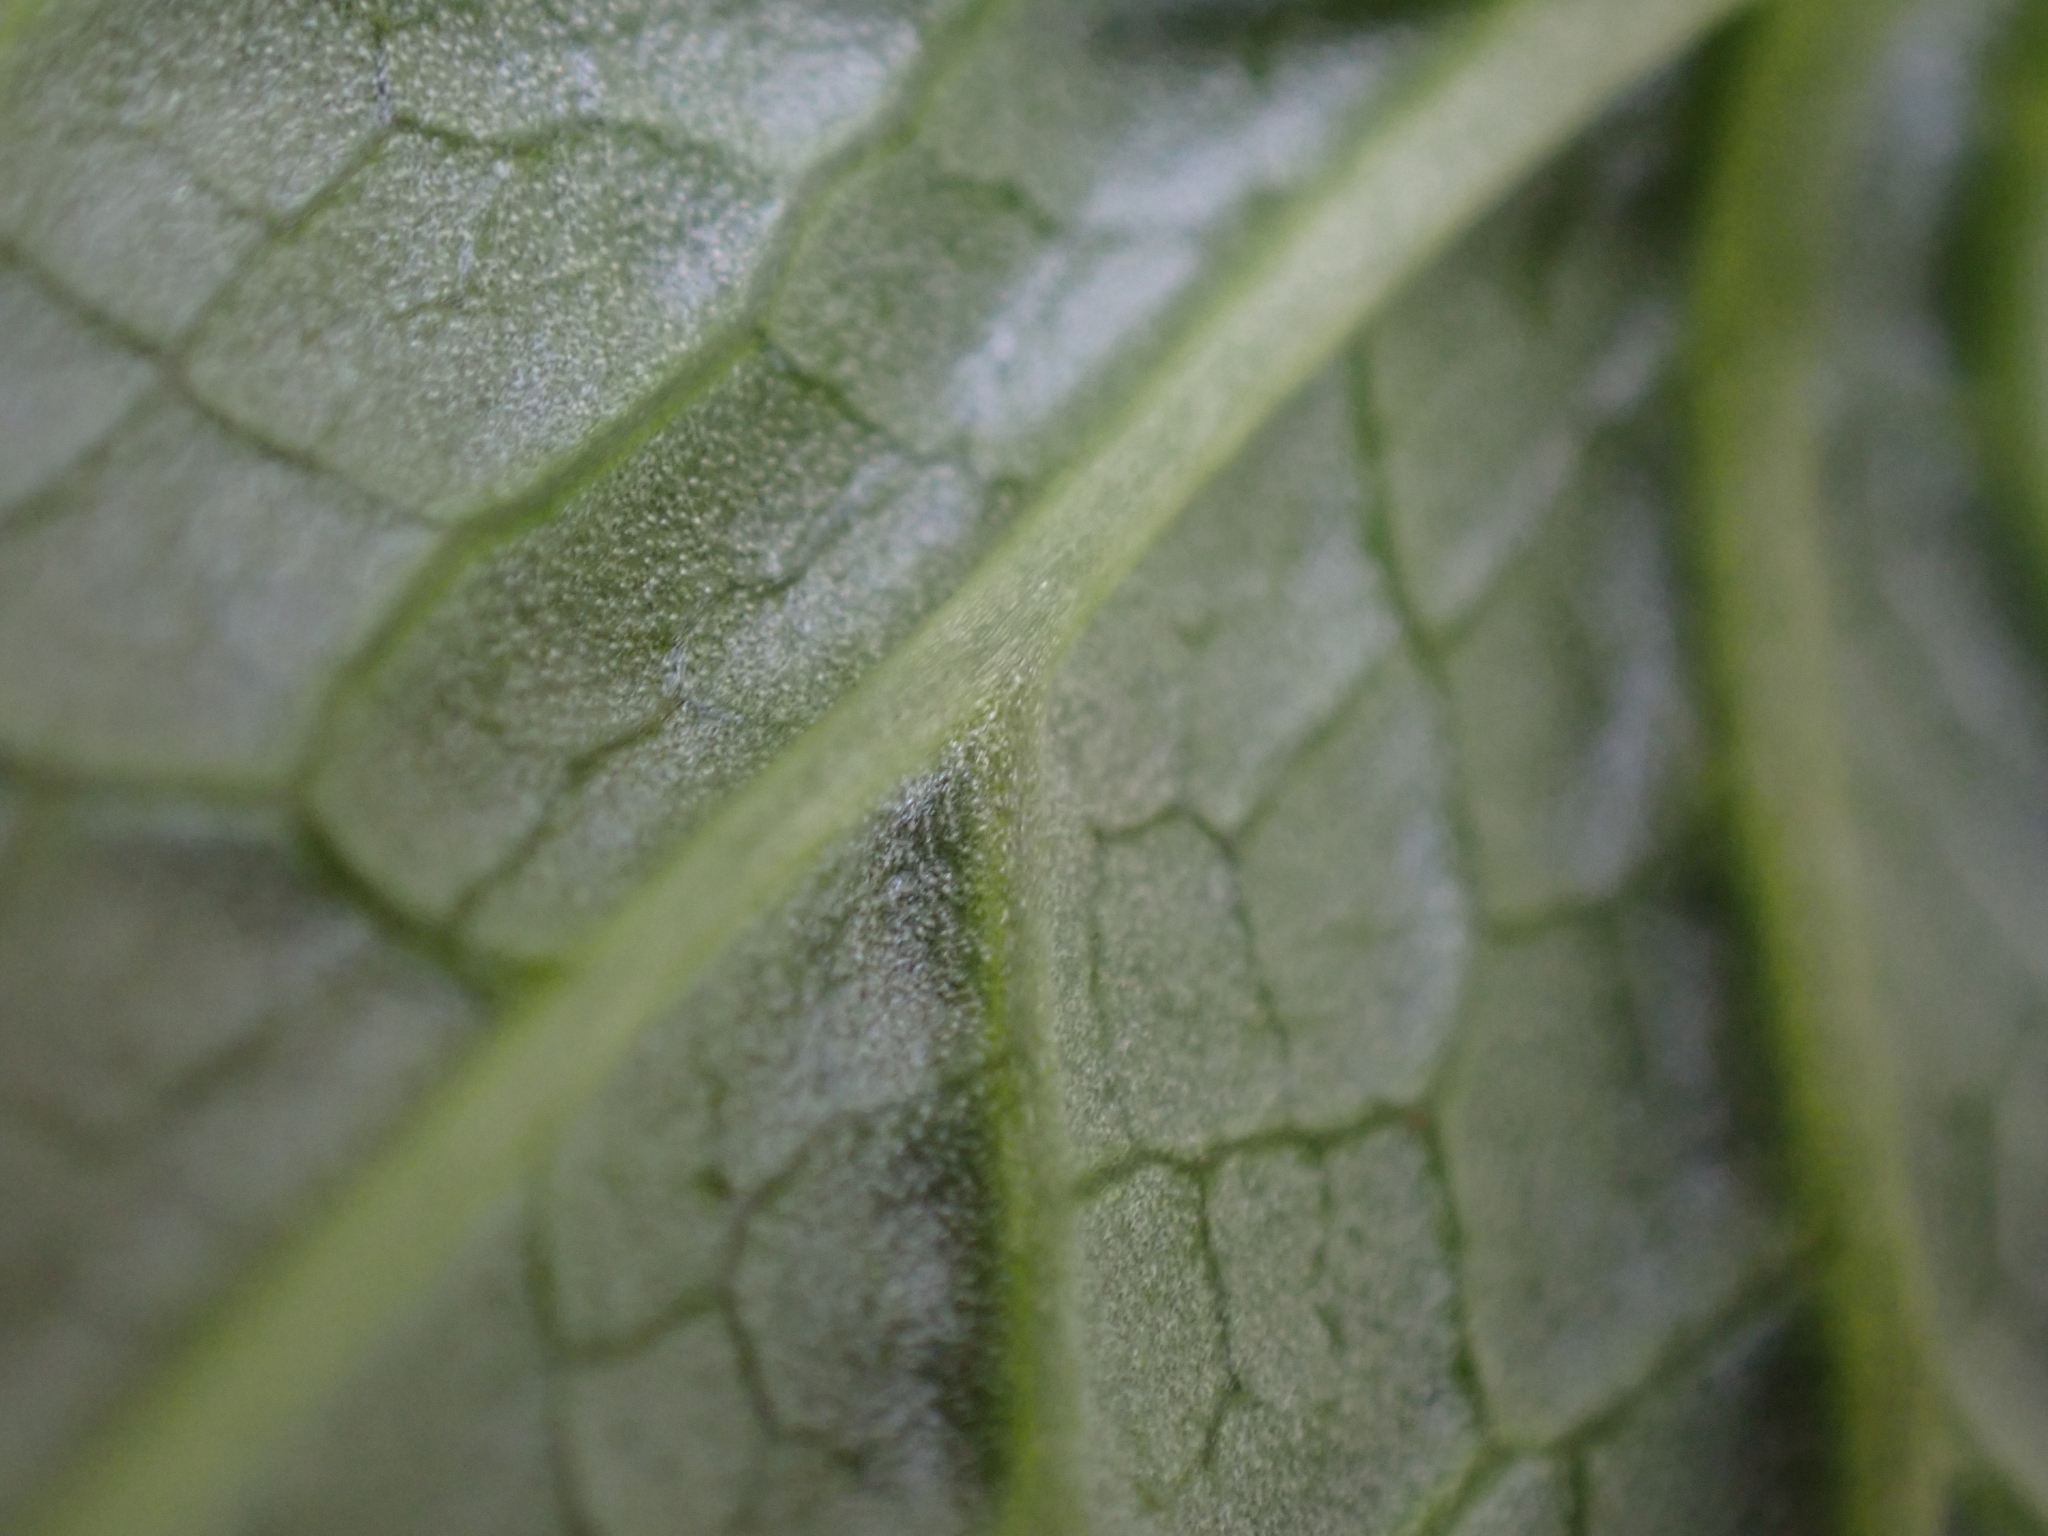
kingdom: Plantae
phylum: Tracheophyta
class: Magnoliopsida
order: Ranunculales
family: Ranunculaceae
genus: Trautvetteria
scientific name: Trautvetteria carolinensis
